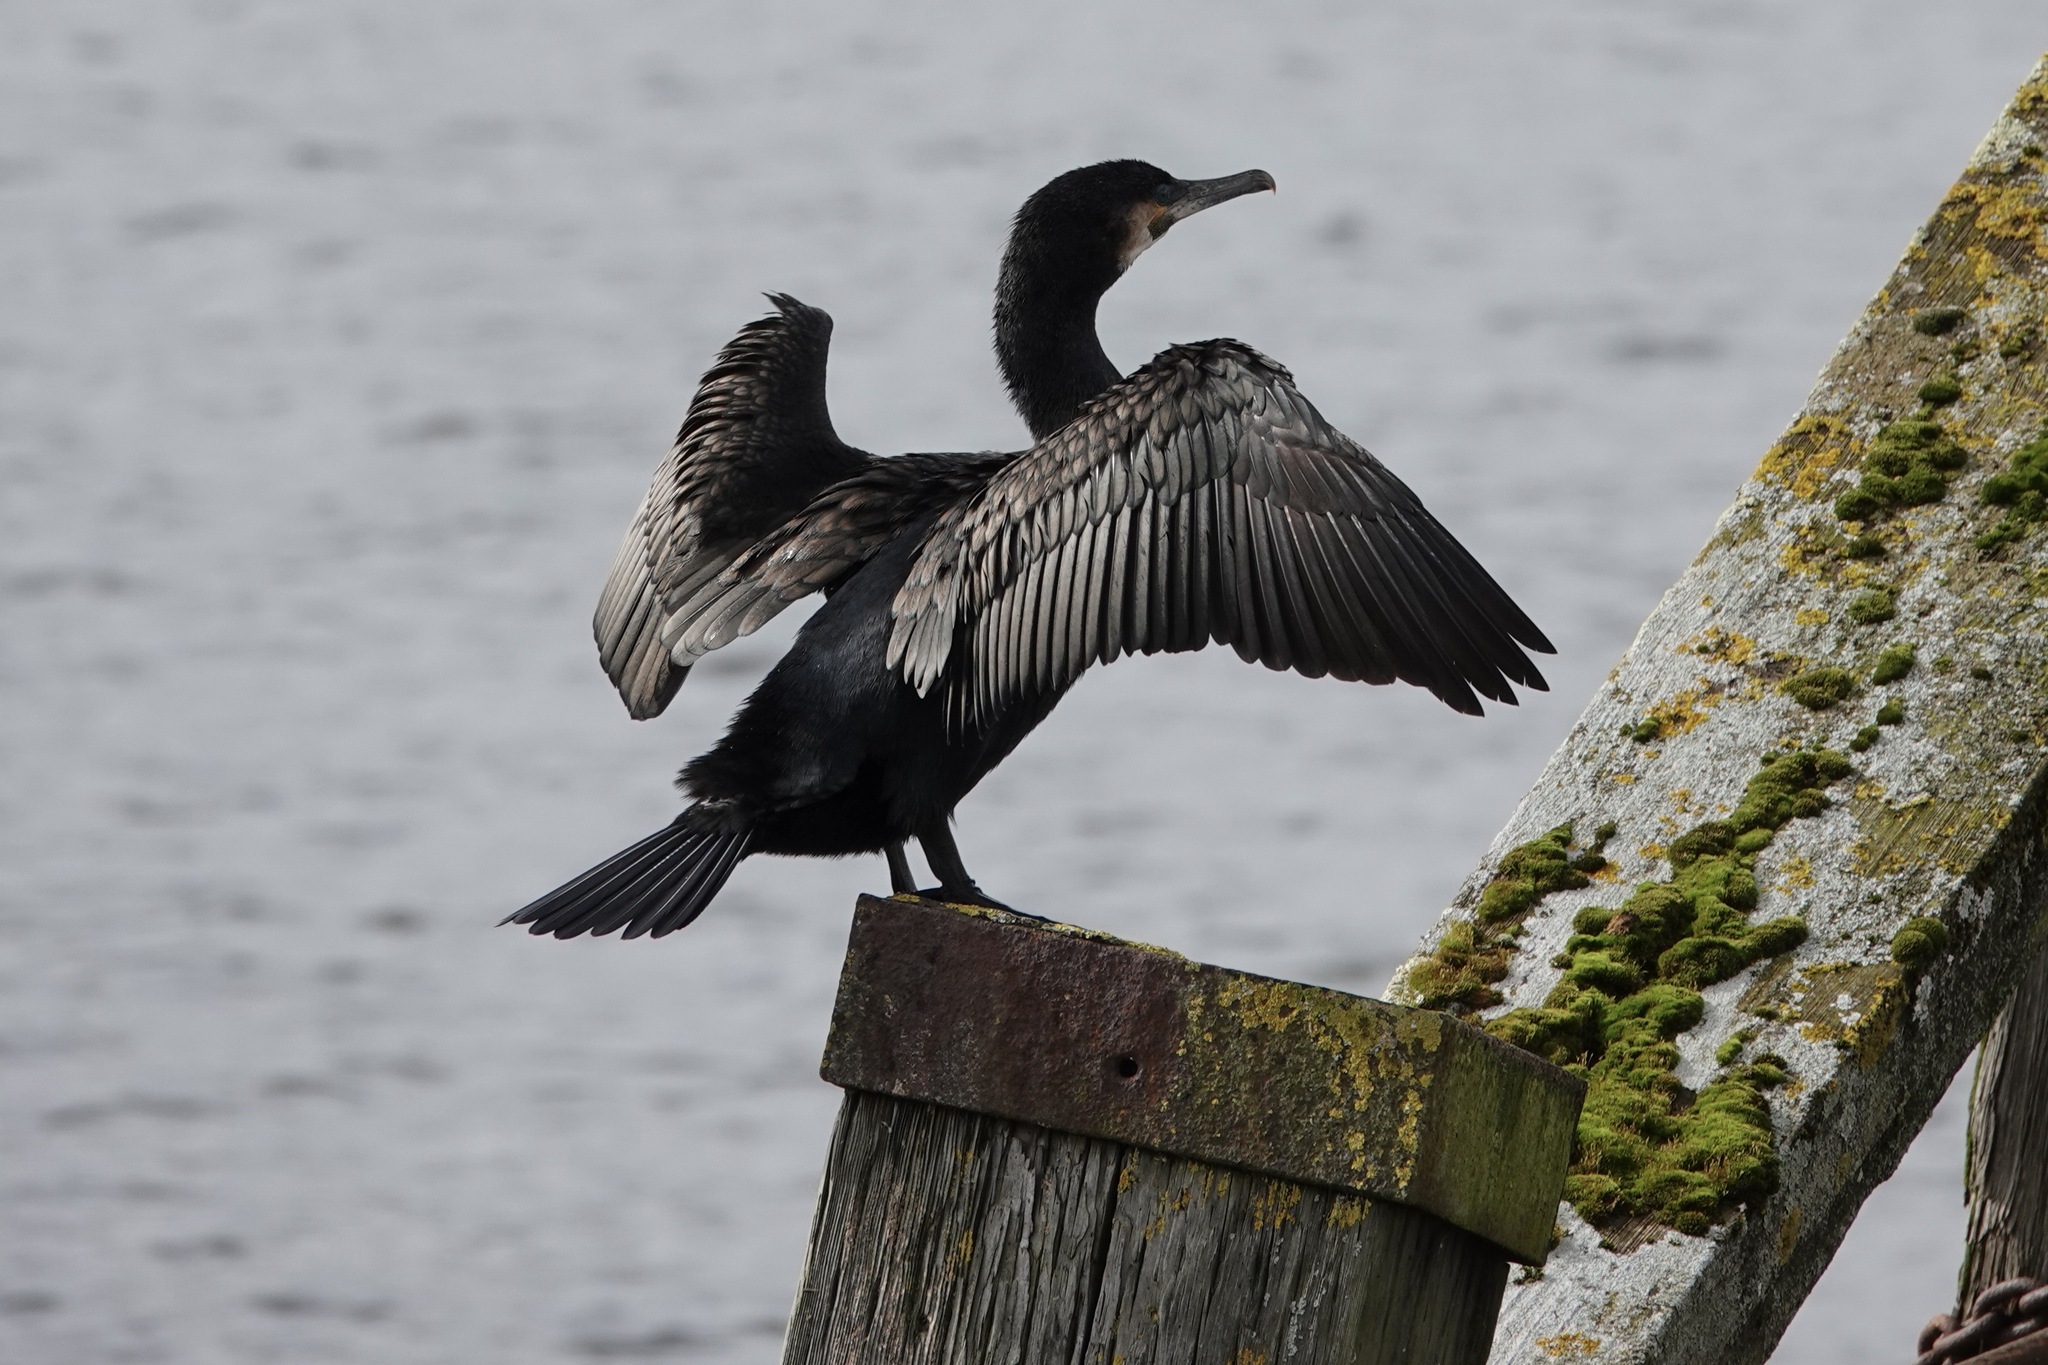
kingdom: Animalia
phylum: Chordata
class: Aves
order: Suliformes
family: Phalacrocoracidae
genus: Phalacrocorax
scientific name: Phalacrocorax carbo
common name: Great cormorant
